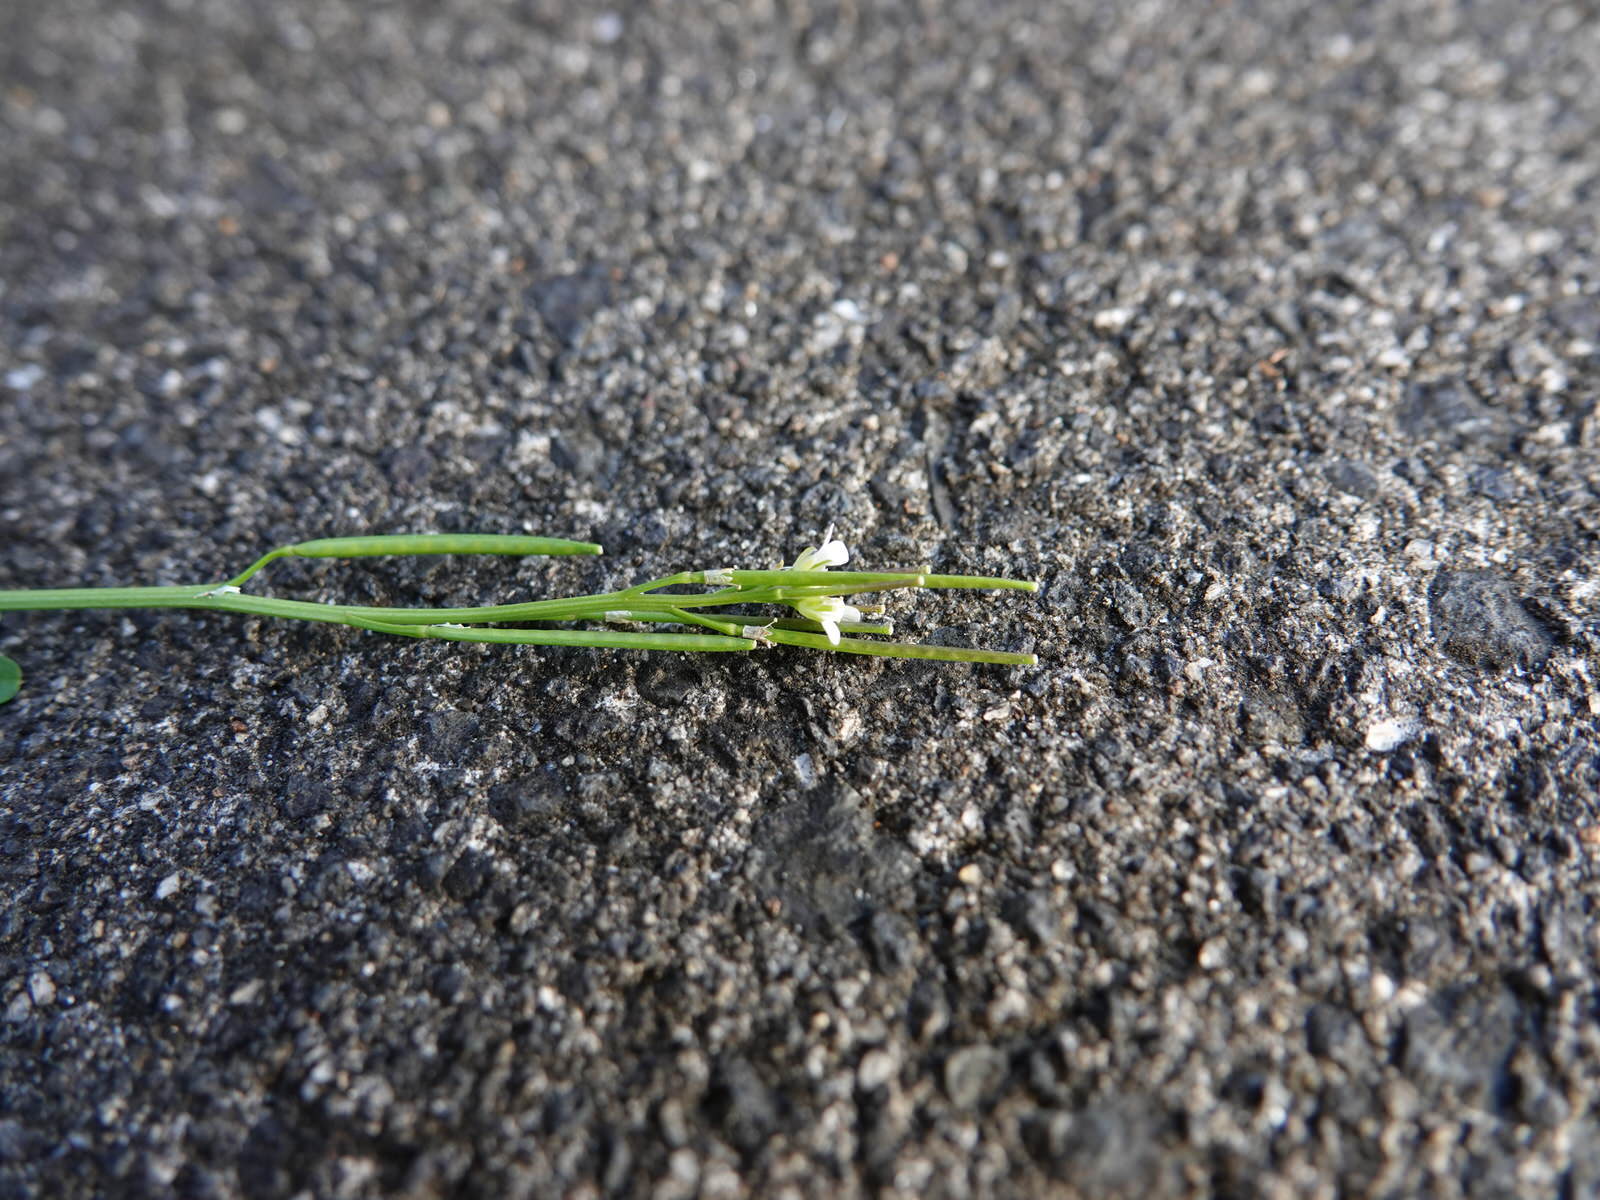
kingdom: Plantae
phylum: Tracheophyta
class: Magnoliopsida
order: Brassicales
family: Brassicaceae
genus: Cardamine
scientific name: Cardamine hirsuta
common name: Hairy bittercress
